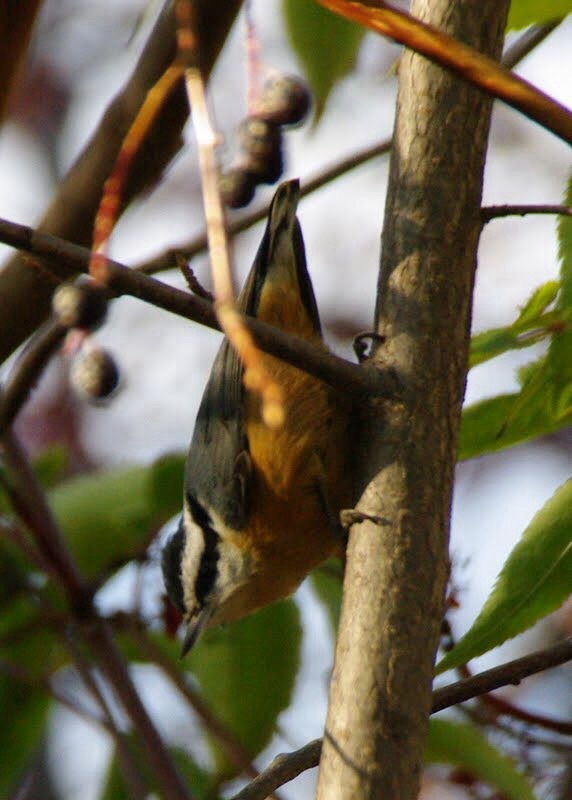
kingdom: Animalia
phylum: Chordata
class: Aves
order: Passeriformes
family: Sittidae
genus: Sitta
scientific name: Sitta canadensis
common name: Red-breasted nuthatch
